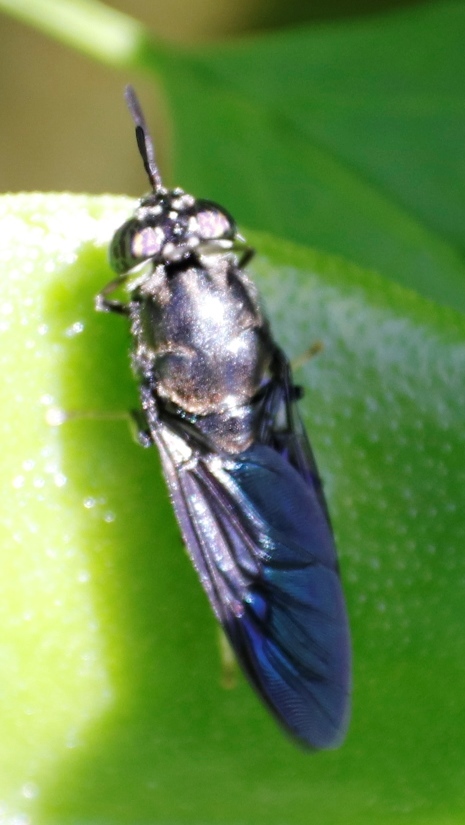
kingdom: Animalia
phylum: Arthropoda
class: Insecta
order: Diptera
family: Stratiomyidae
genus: Hermetia
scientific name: Hermetia illucens
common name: Black soldier fly
